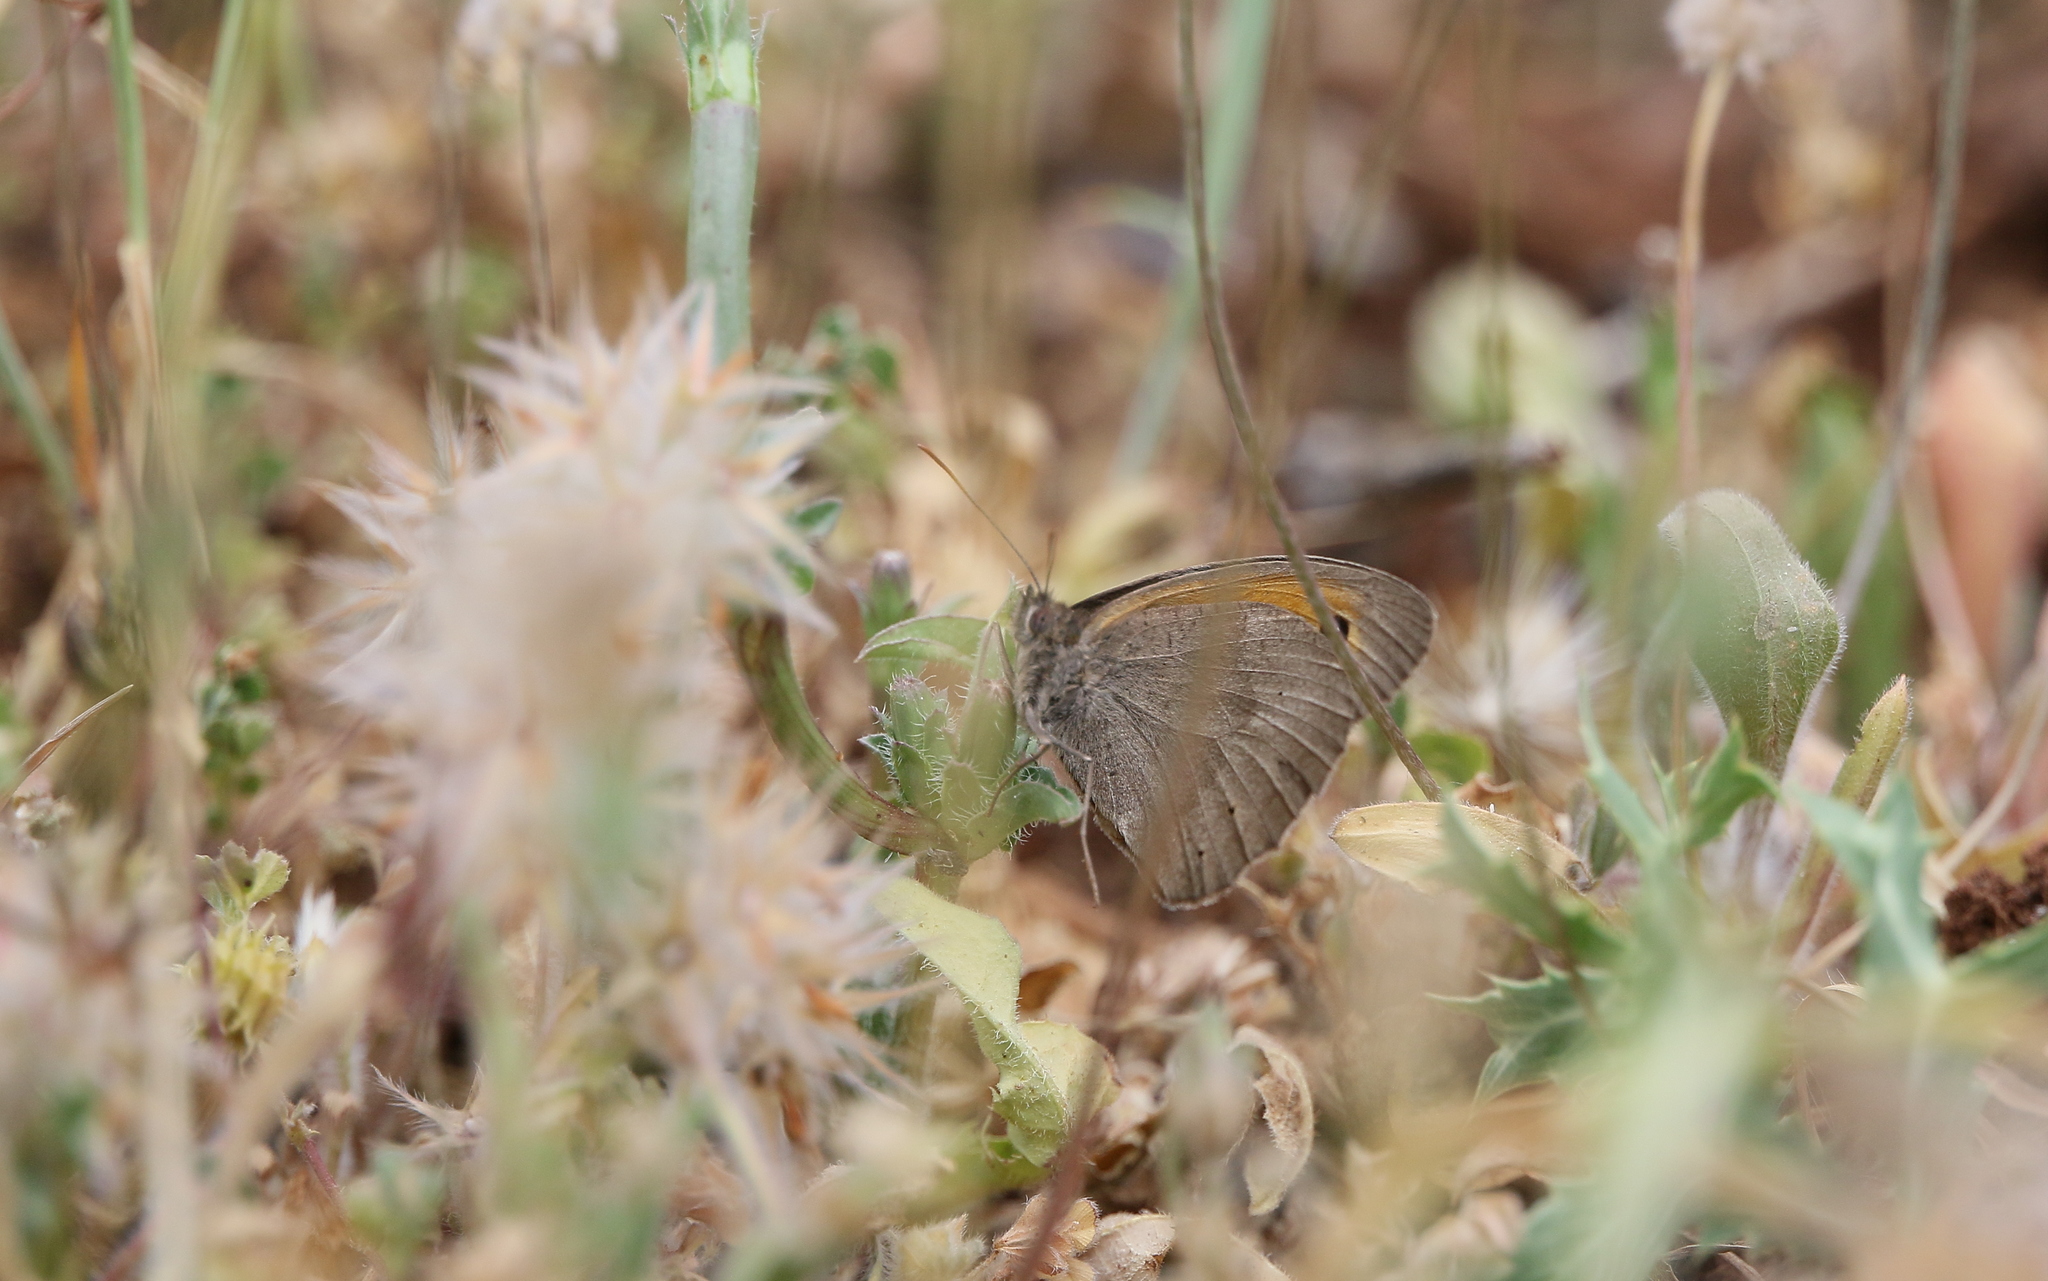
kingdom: Animalia
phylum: Arthropoda
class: Insecta
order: Lepidoptera
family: Nymphalidae
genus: Maniola
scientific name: Maniola jurtina
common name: Meadow brown
